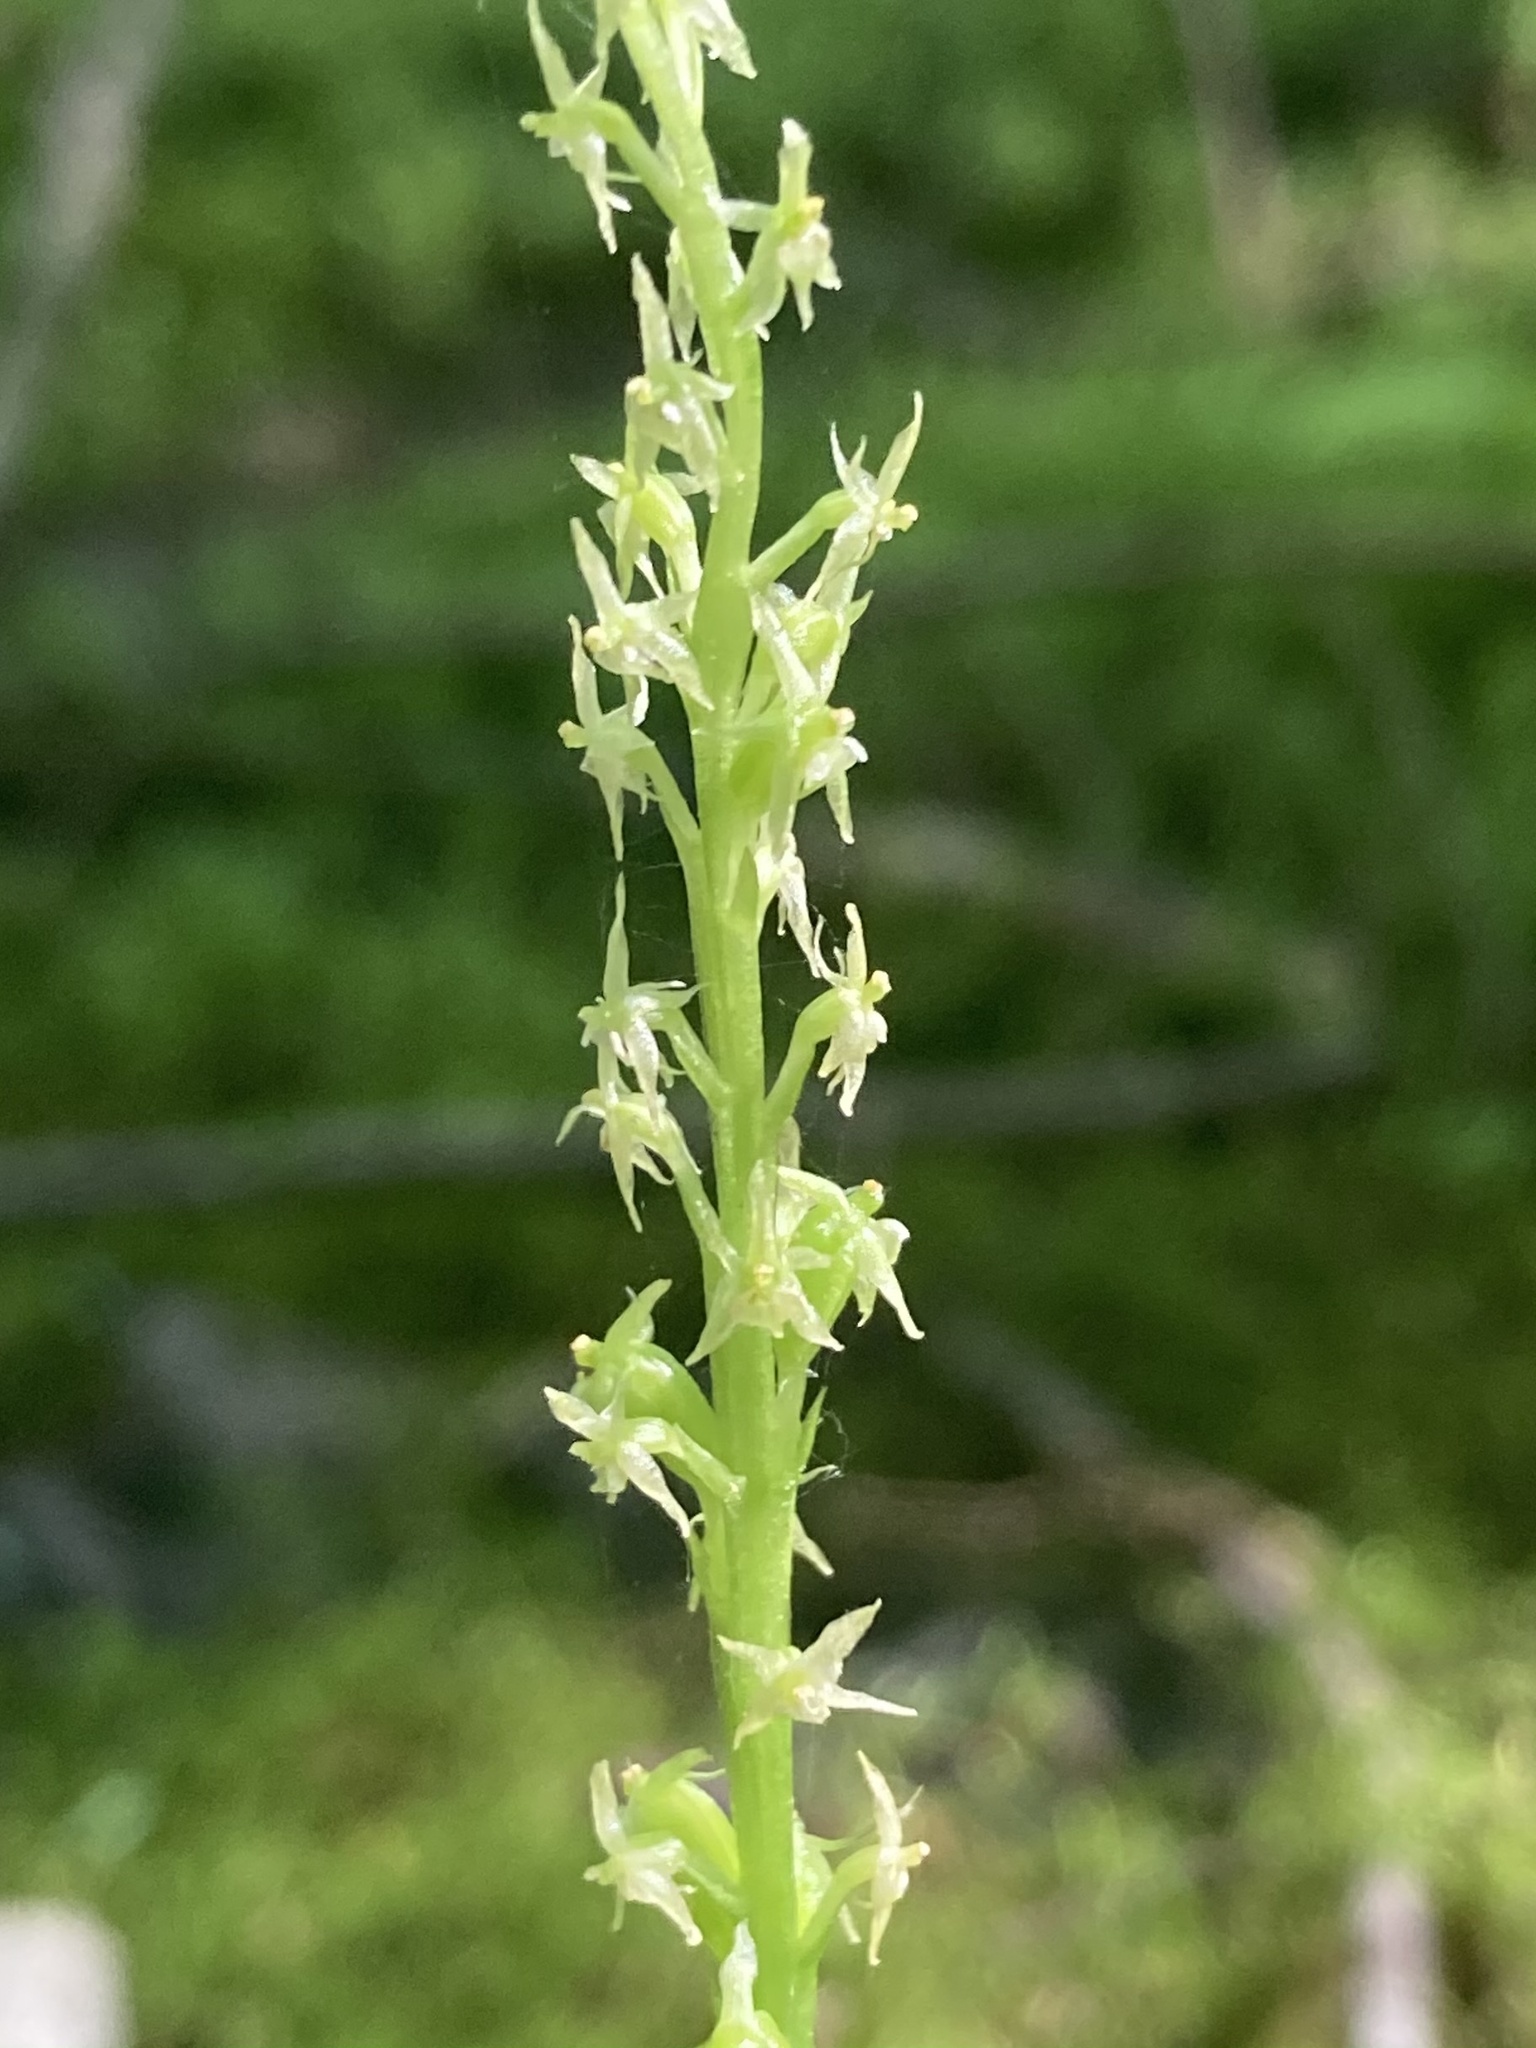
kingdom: Plantae
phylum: Tracheophyta
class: Liliopsida
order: Asparagales
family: Orchidaceae
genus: Malaxis
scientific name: Malaxis monophyllos
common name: White adder's-mouth
